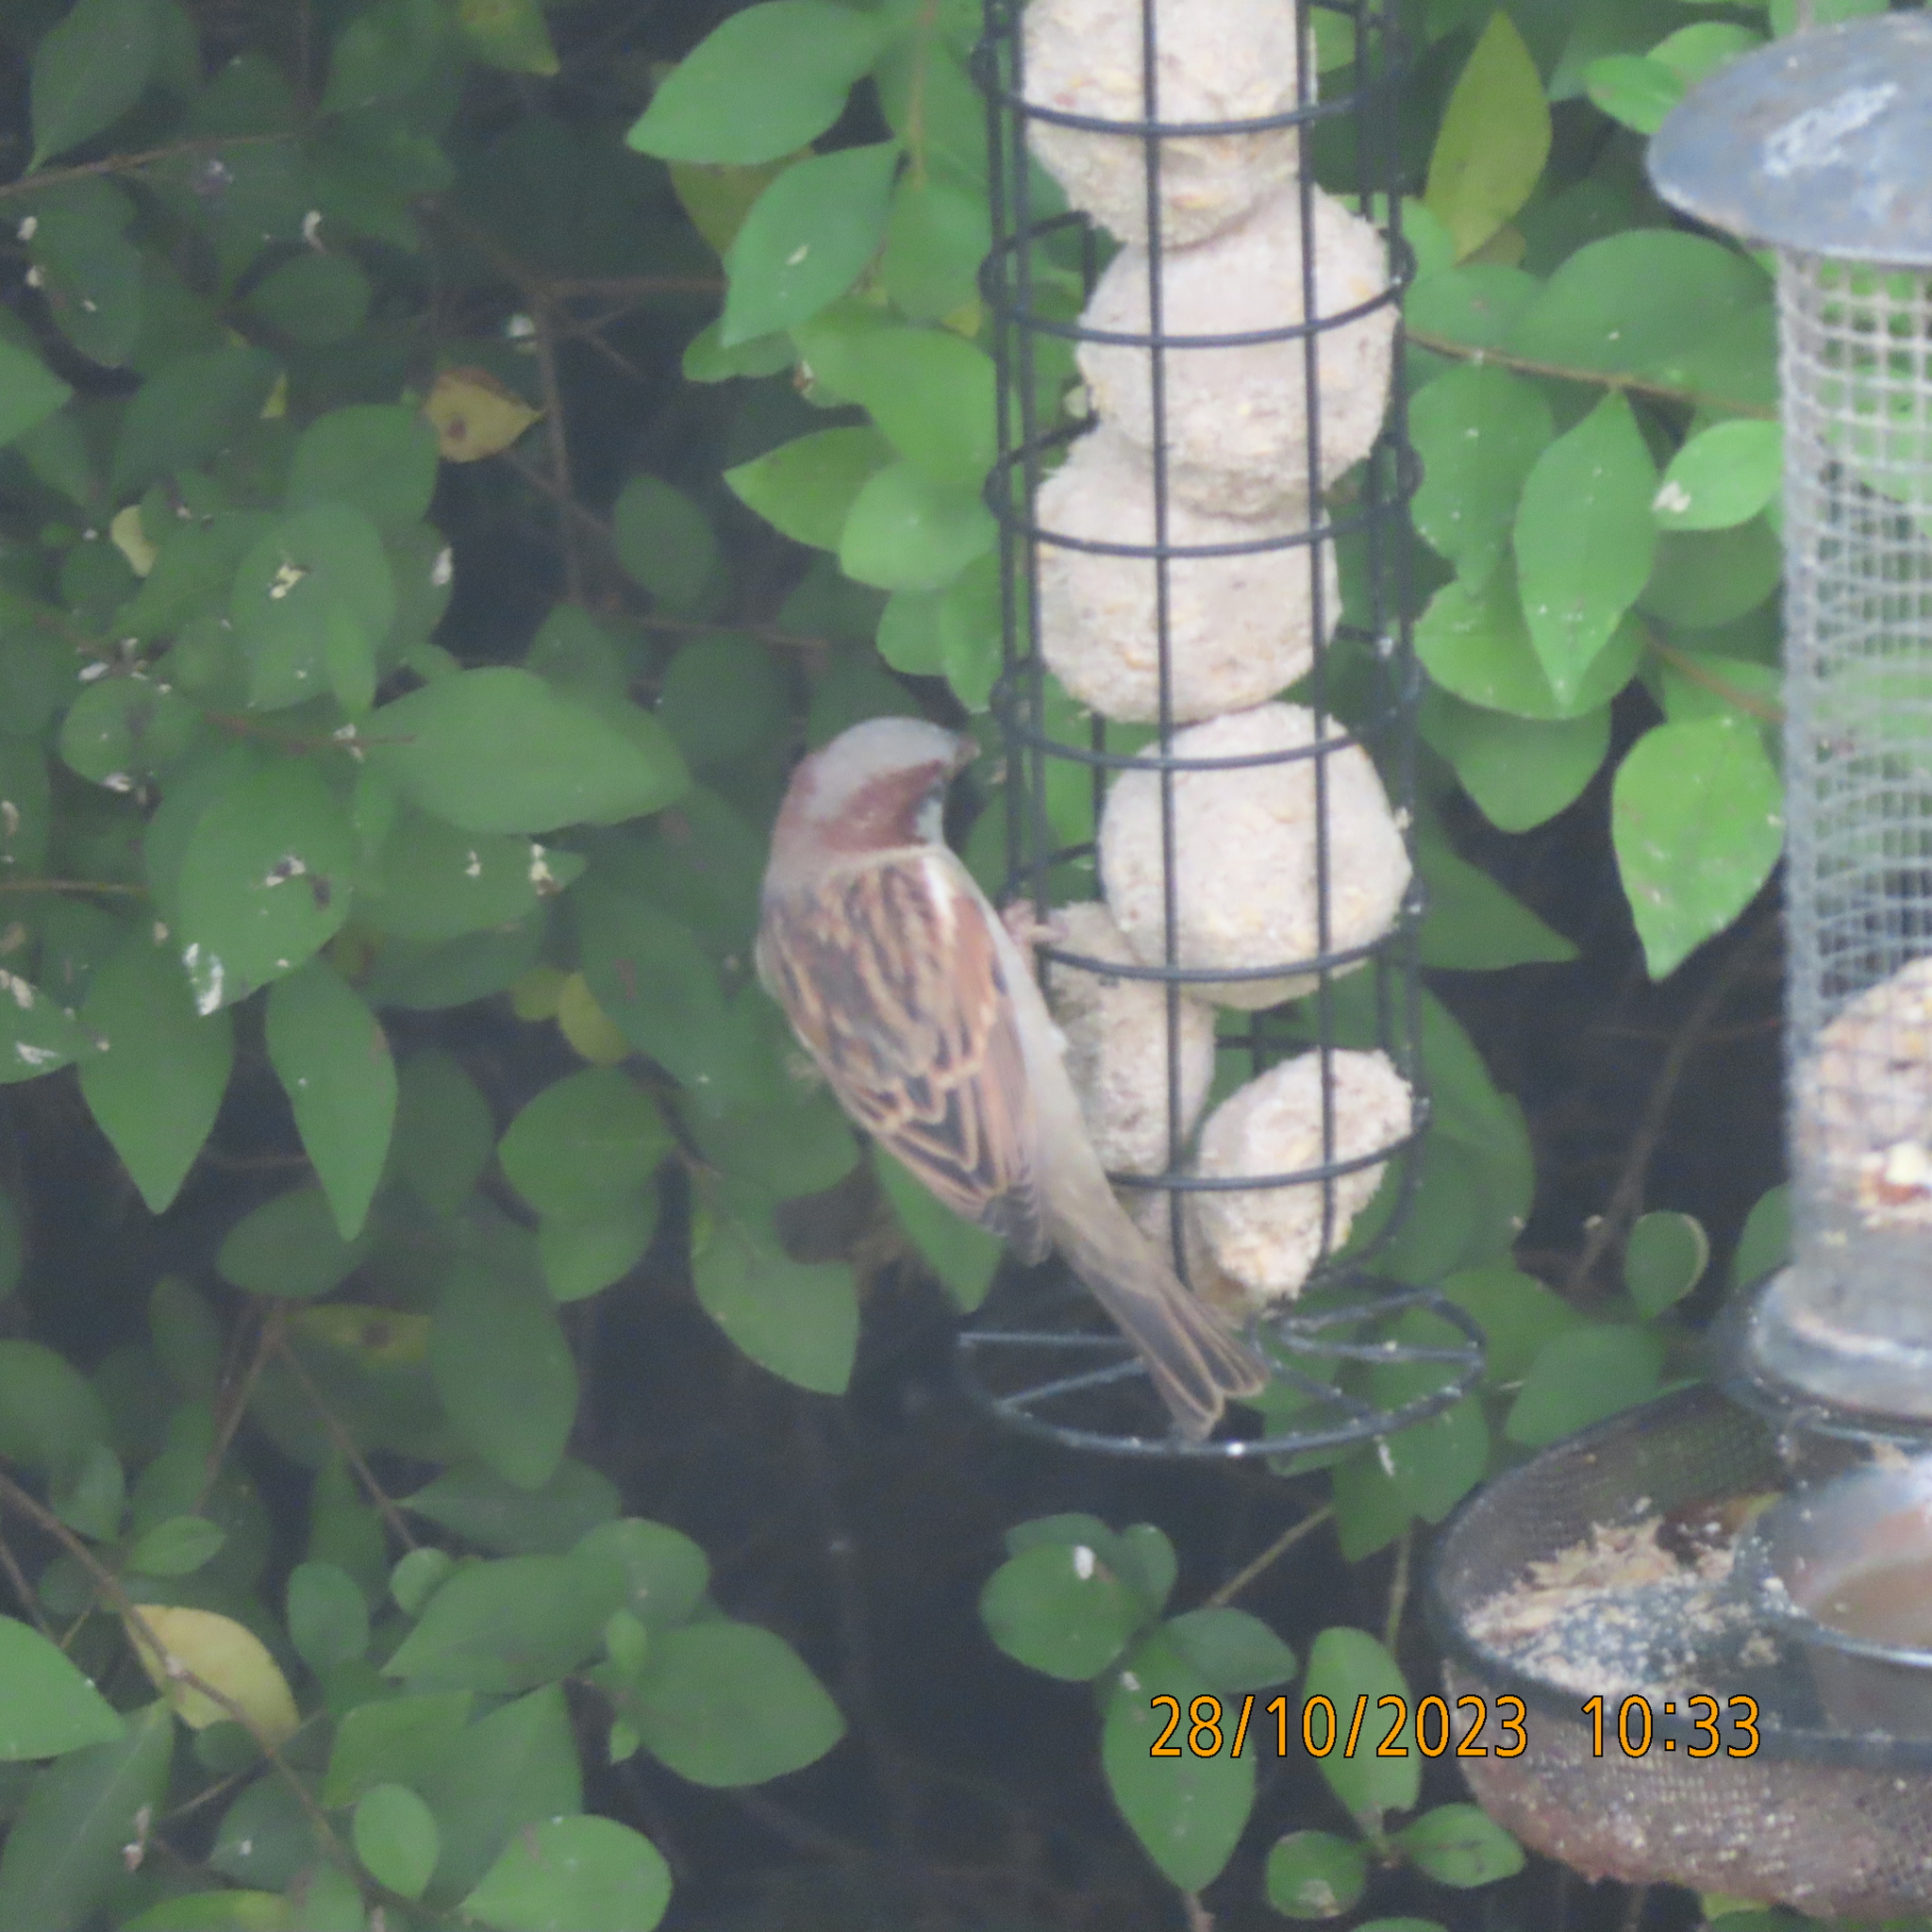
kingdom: Animalia
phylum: Chordata
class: Aves
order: Passeriformes
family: Passeridae
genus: Passer
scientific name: Passer domesticus
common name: House sparrow
